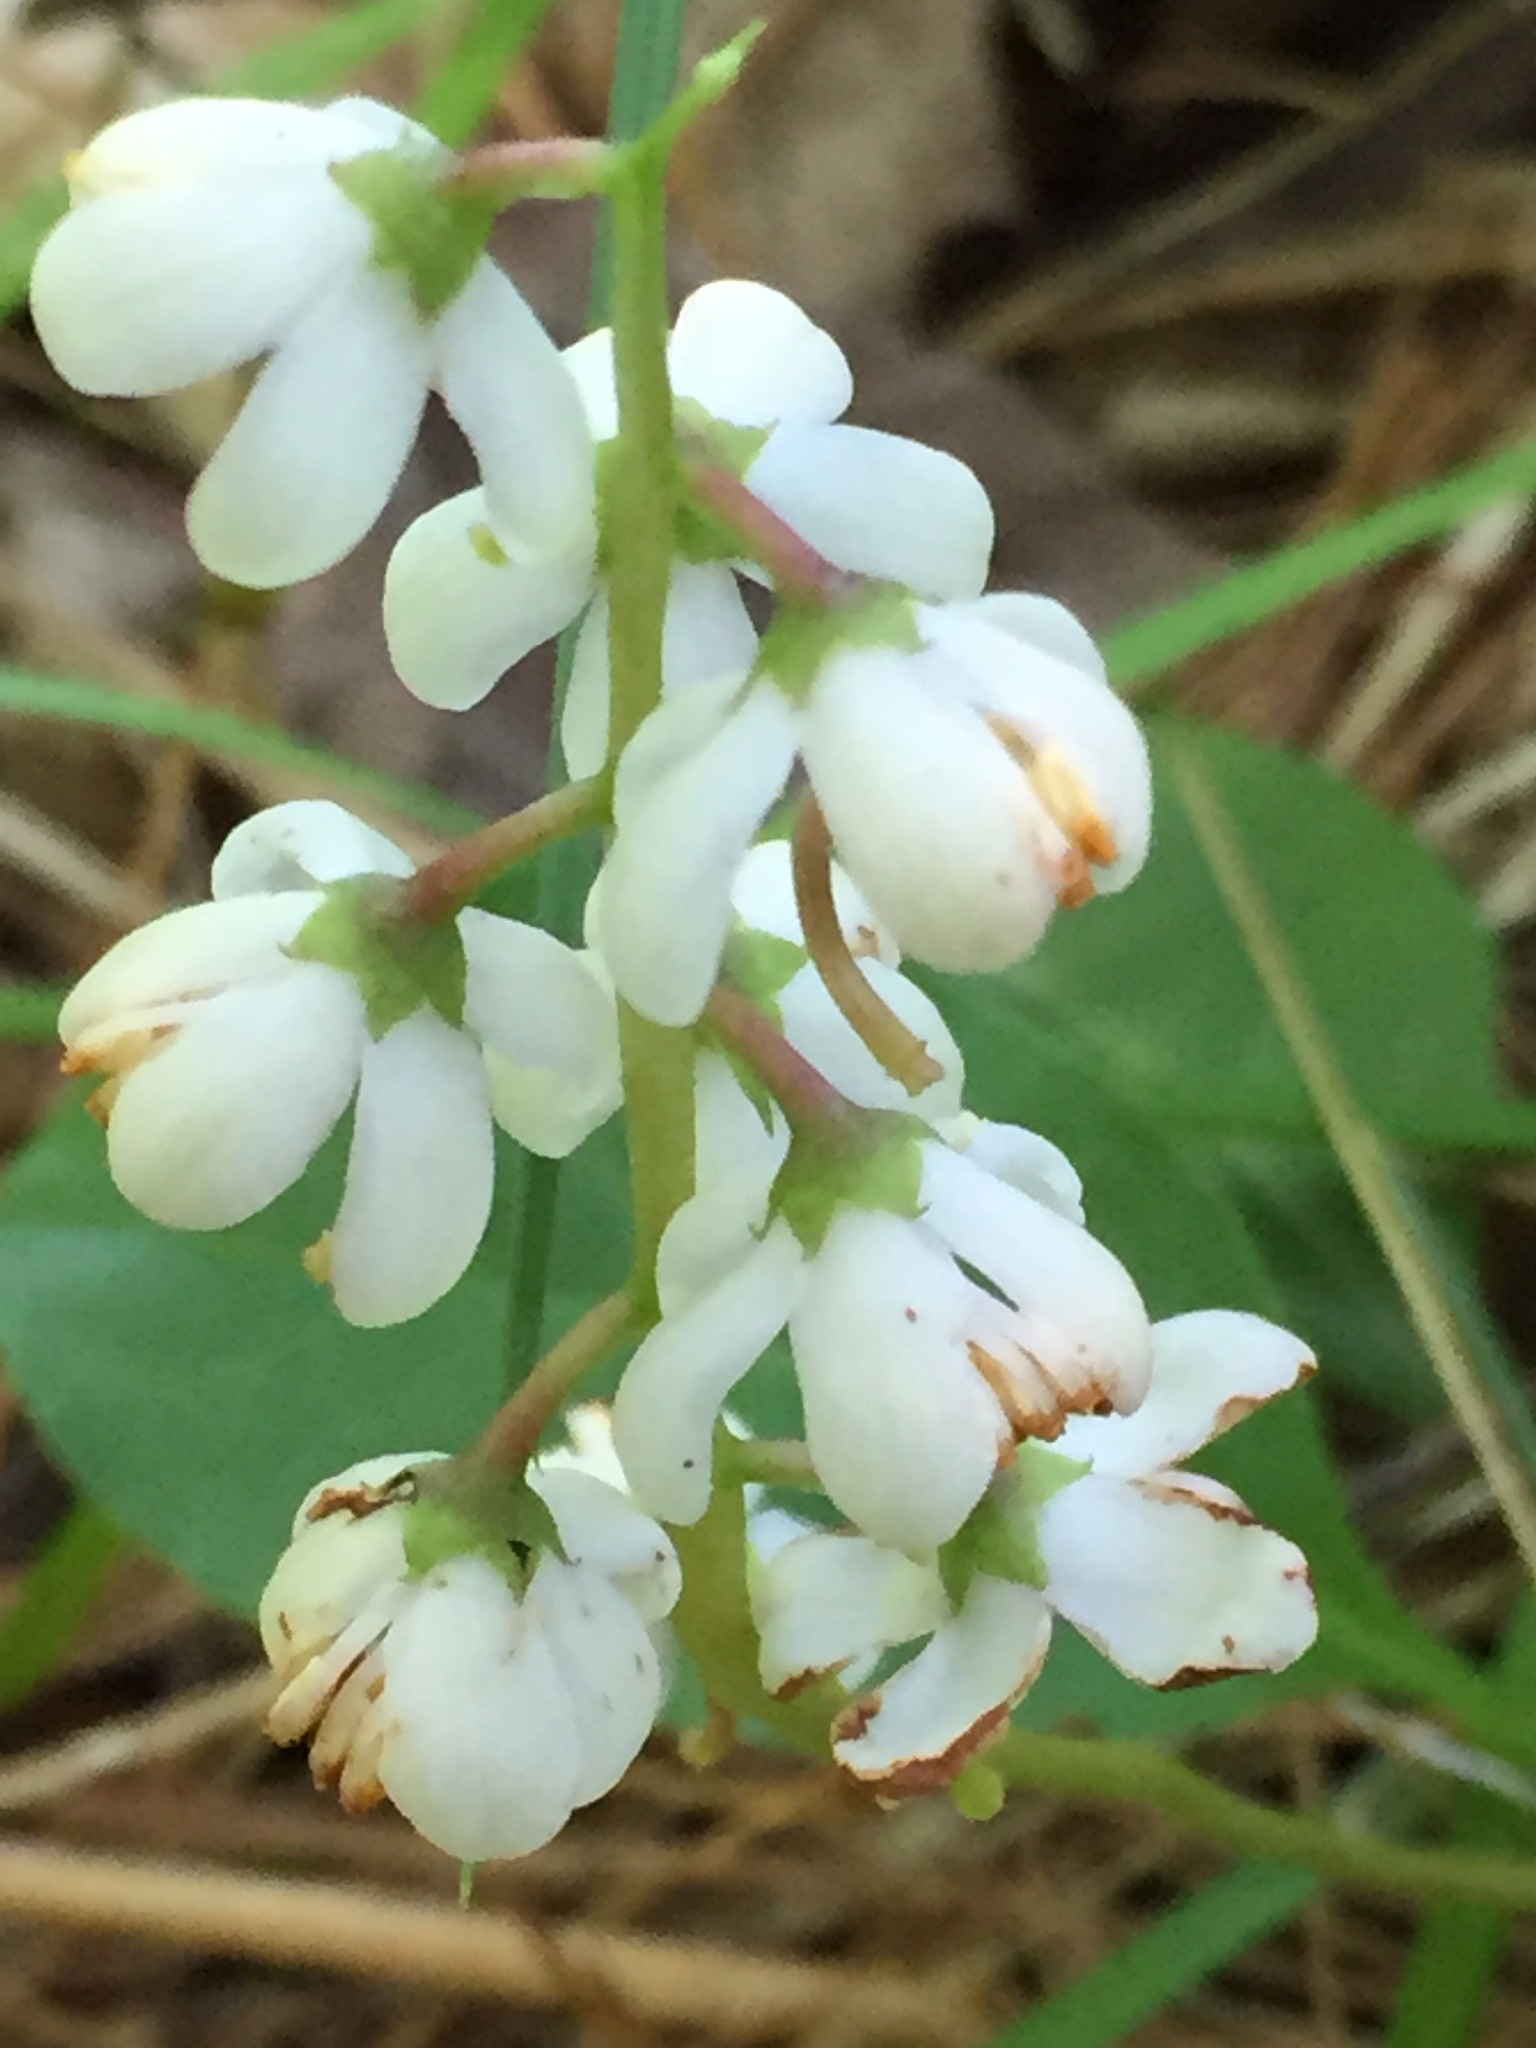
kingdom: Plantae
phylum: Tracheophyta
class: Magnoliopsida
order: Ericales
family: Ericaceae
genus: Pyrola
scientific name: Pyrola elliptica
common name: Shinleaf
